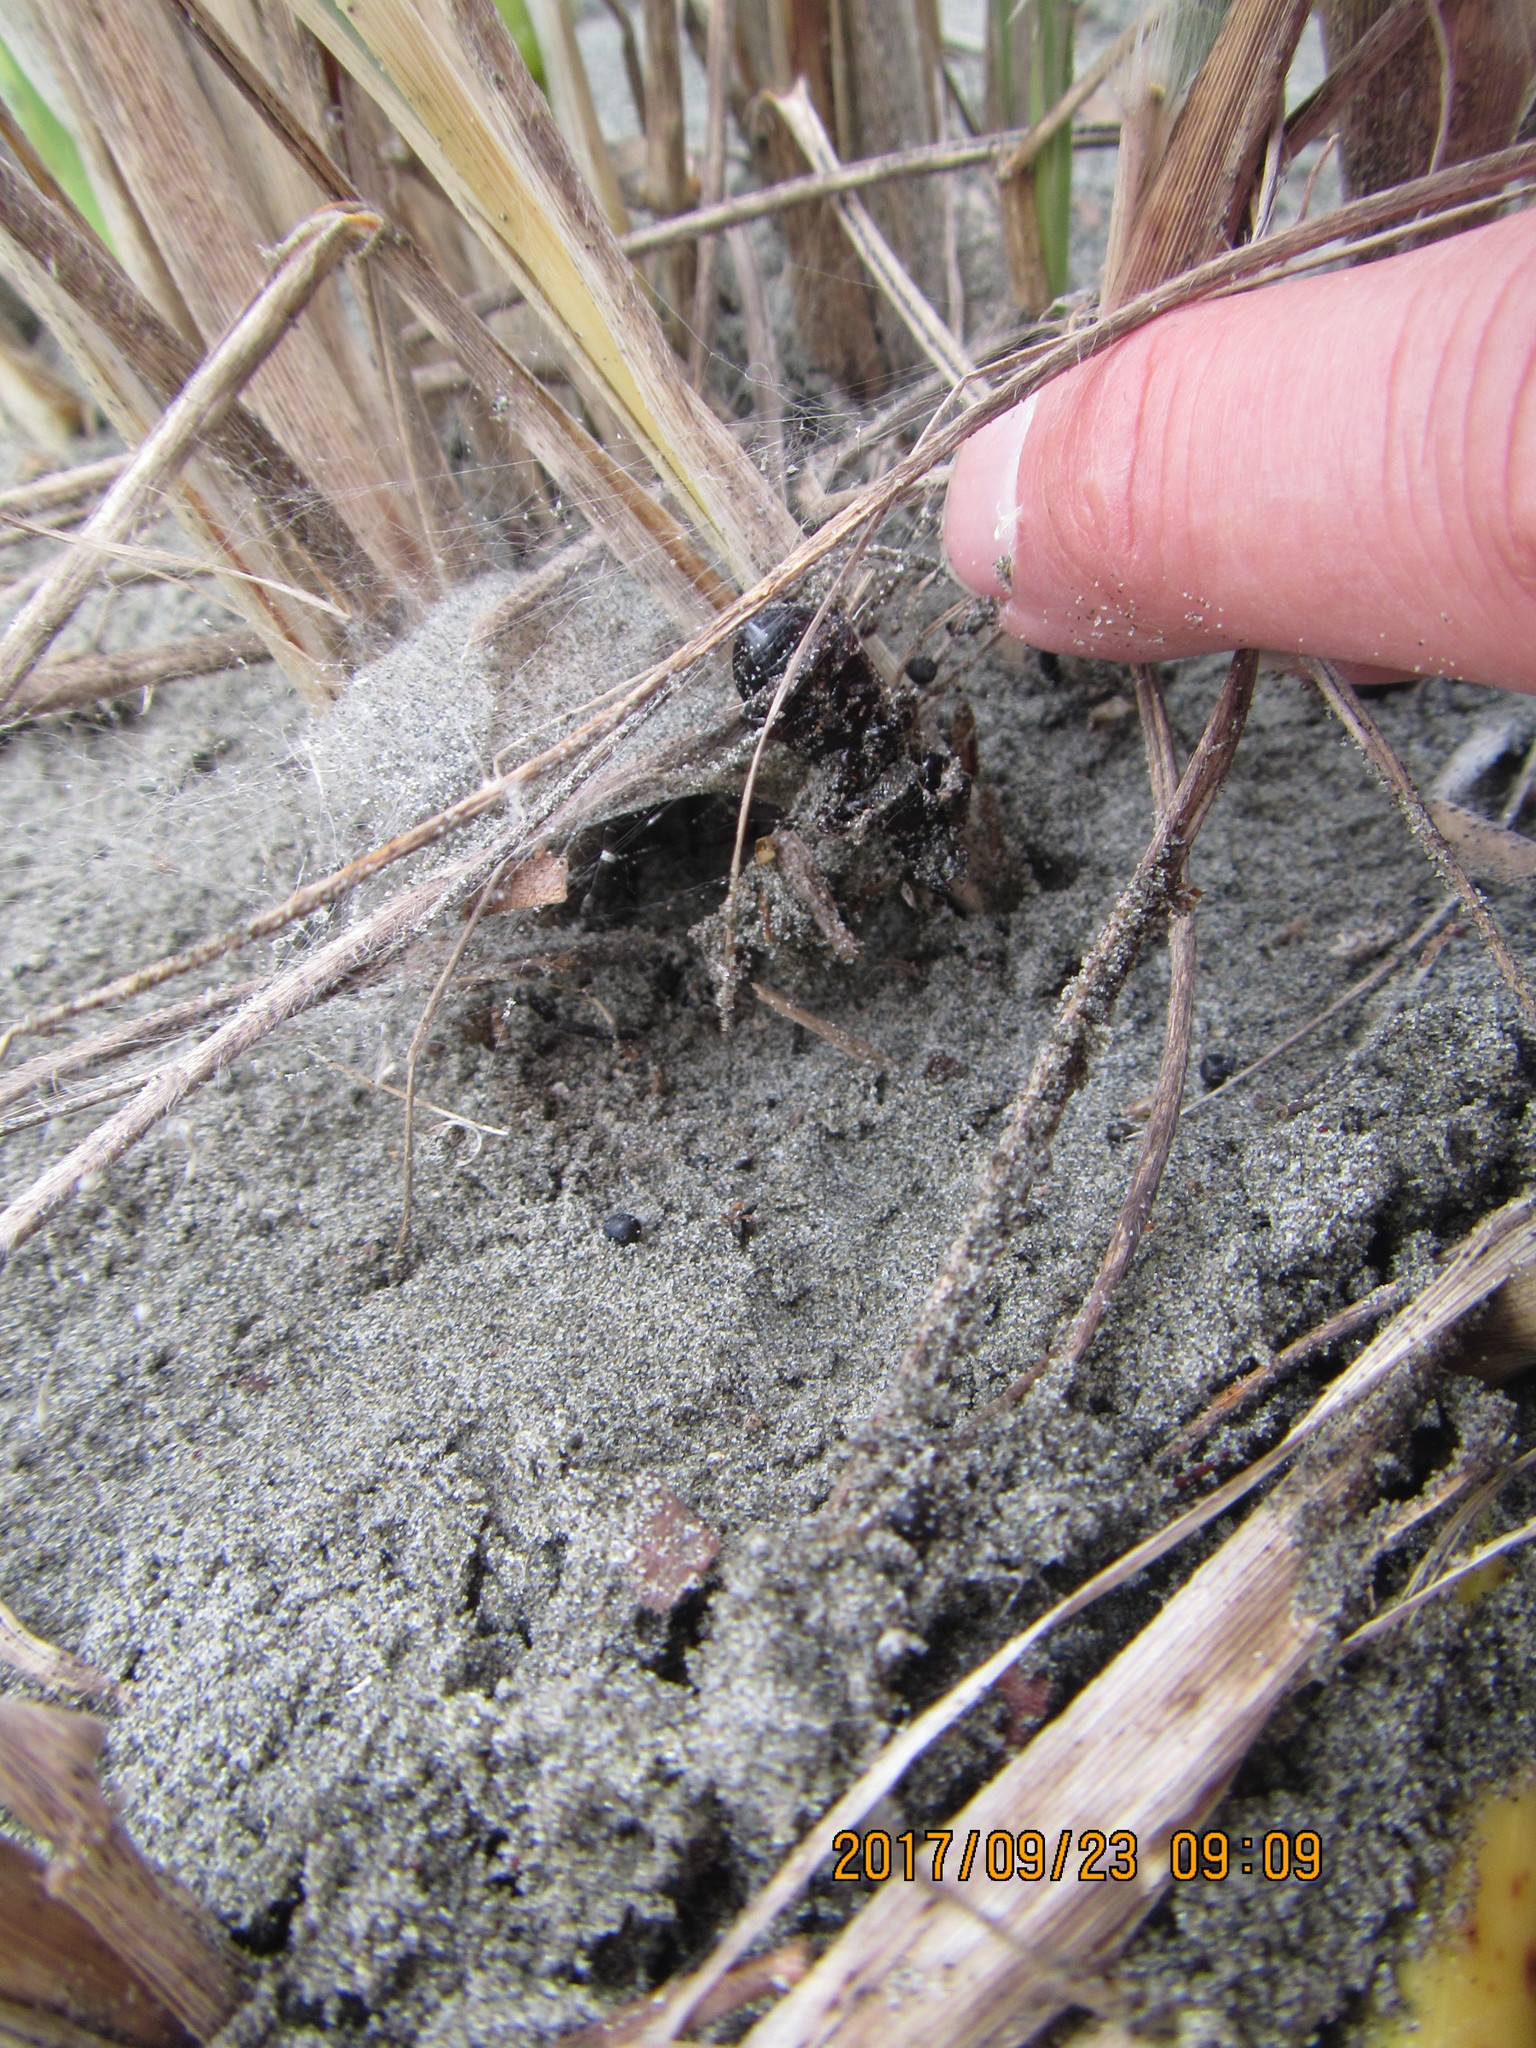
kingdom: Animalia
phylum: Arthropoda
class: Arachnida
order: Araneae
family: Theridiidae
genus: Latrodectus
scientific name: Latrodectus katipo
